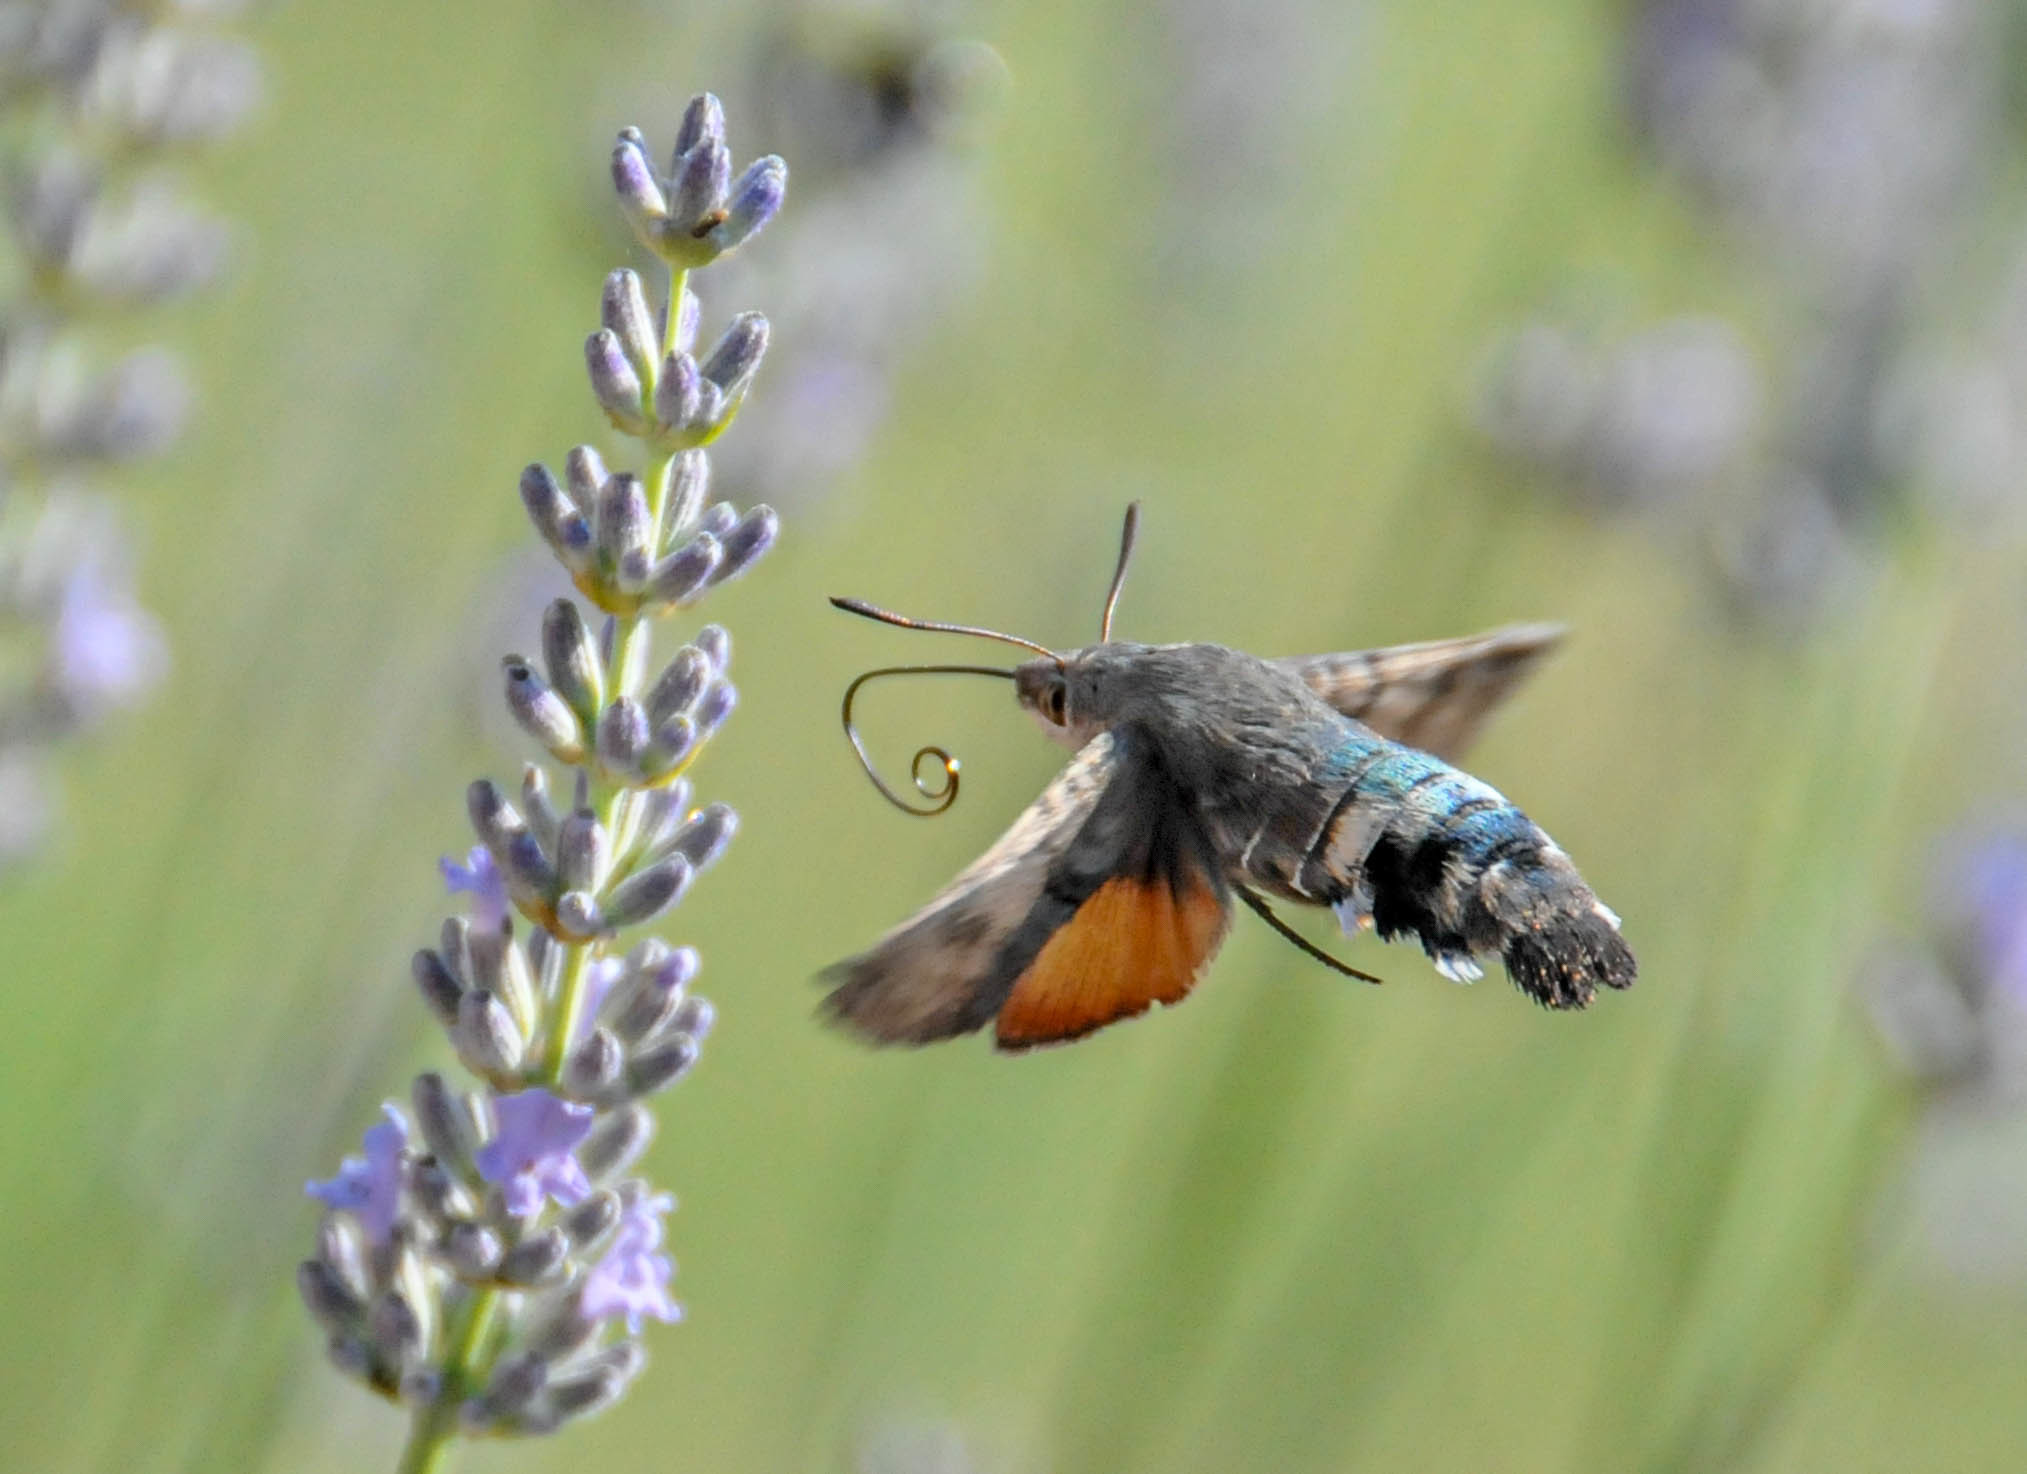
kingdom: Animalia
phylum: Arthropoda
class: Insecta
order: Lepidoptera
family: Sphingidae
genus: Macroglossum
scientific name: Macroglossum stellatarum
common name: Humming-bird hawk-moth
